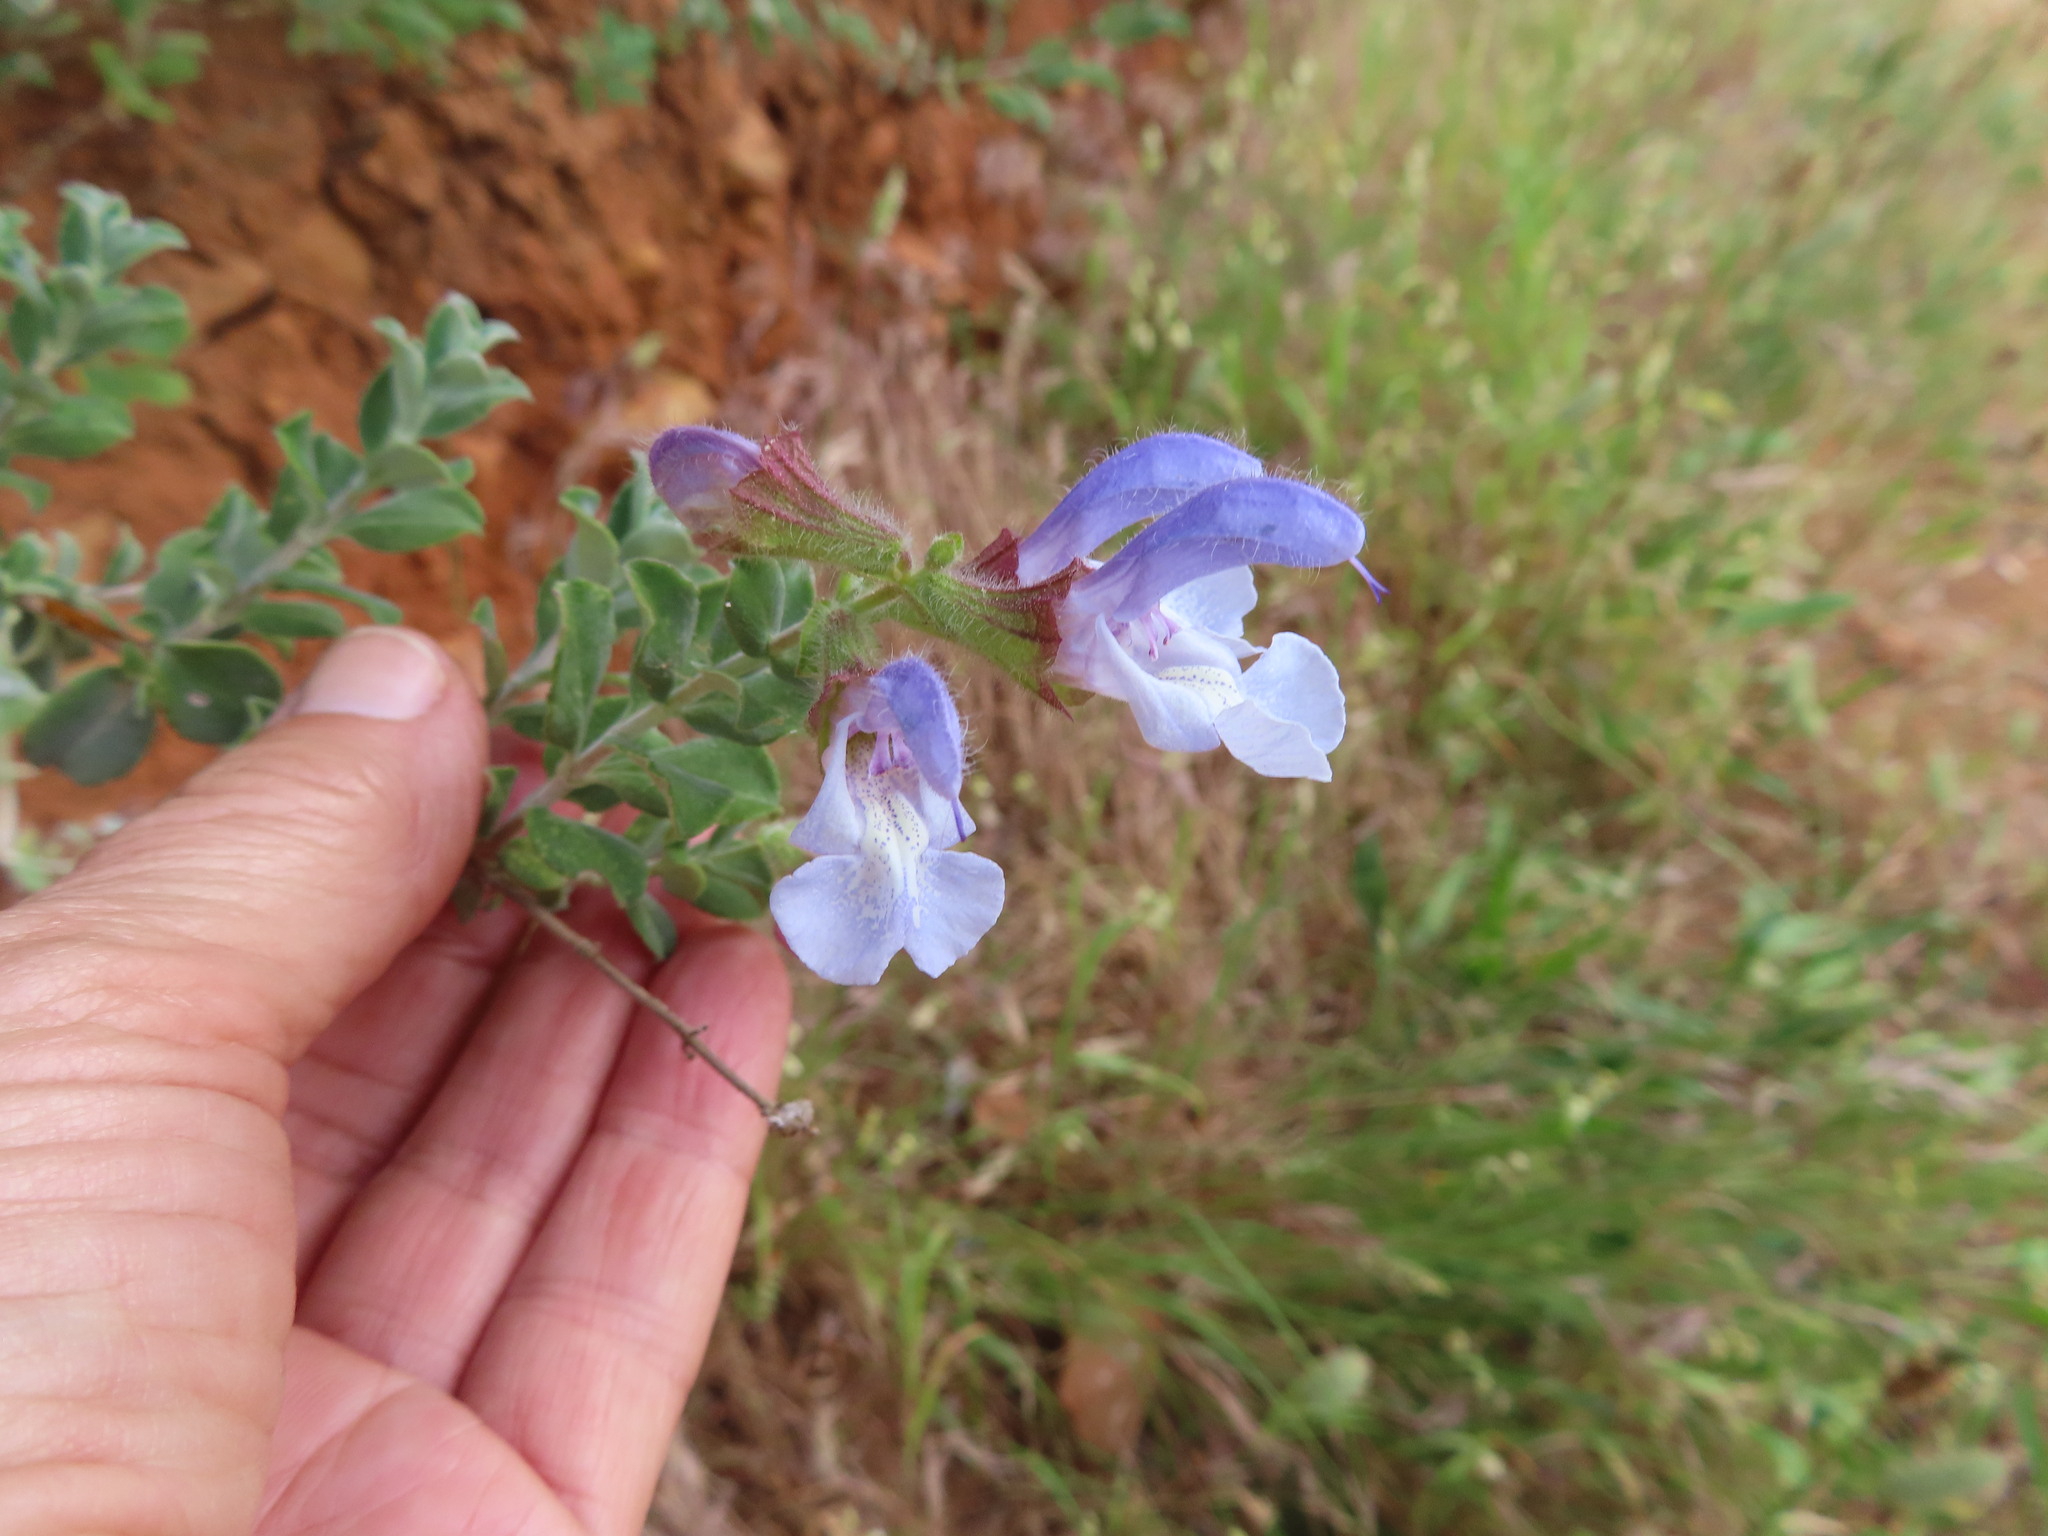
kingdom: Plantae
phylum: Tracheophyta
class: Magnoliopsida
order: Lamiales
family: Lamiaceae
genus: Salvia
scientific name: Salvia africana
